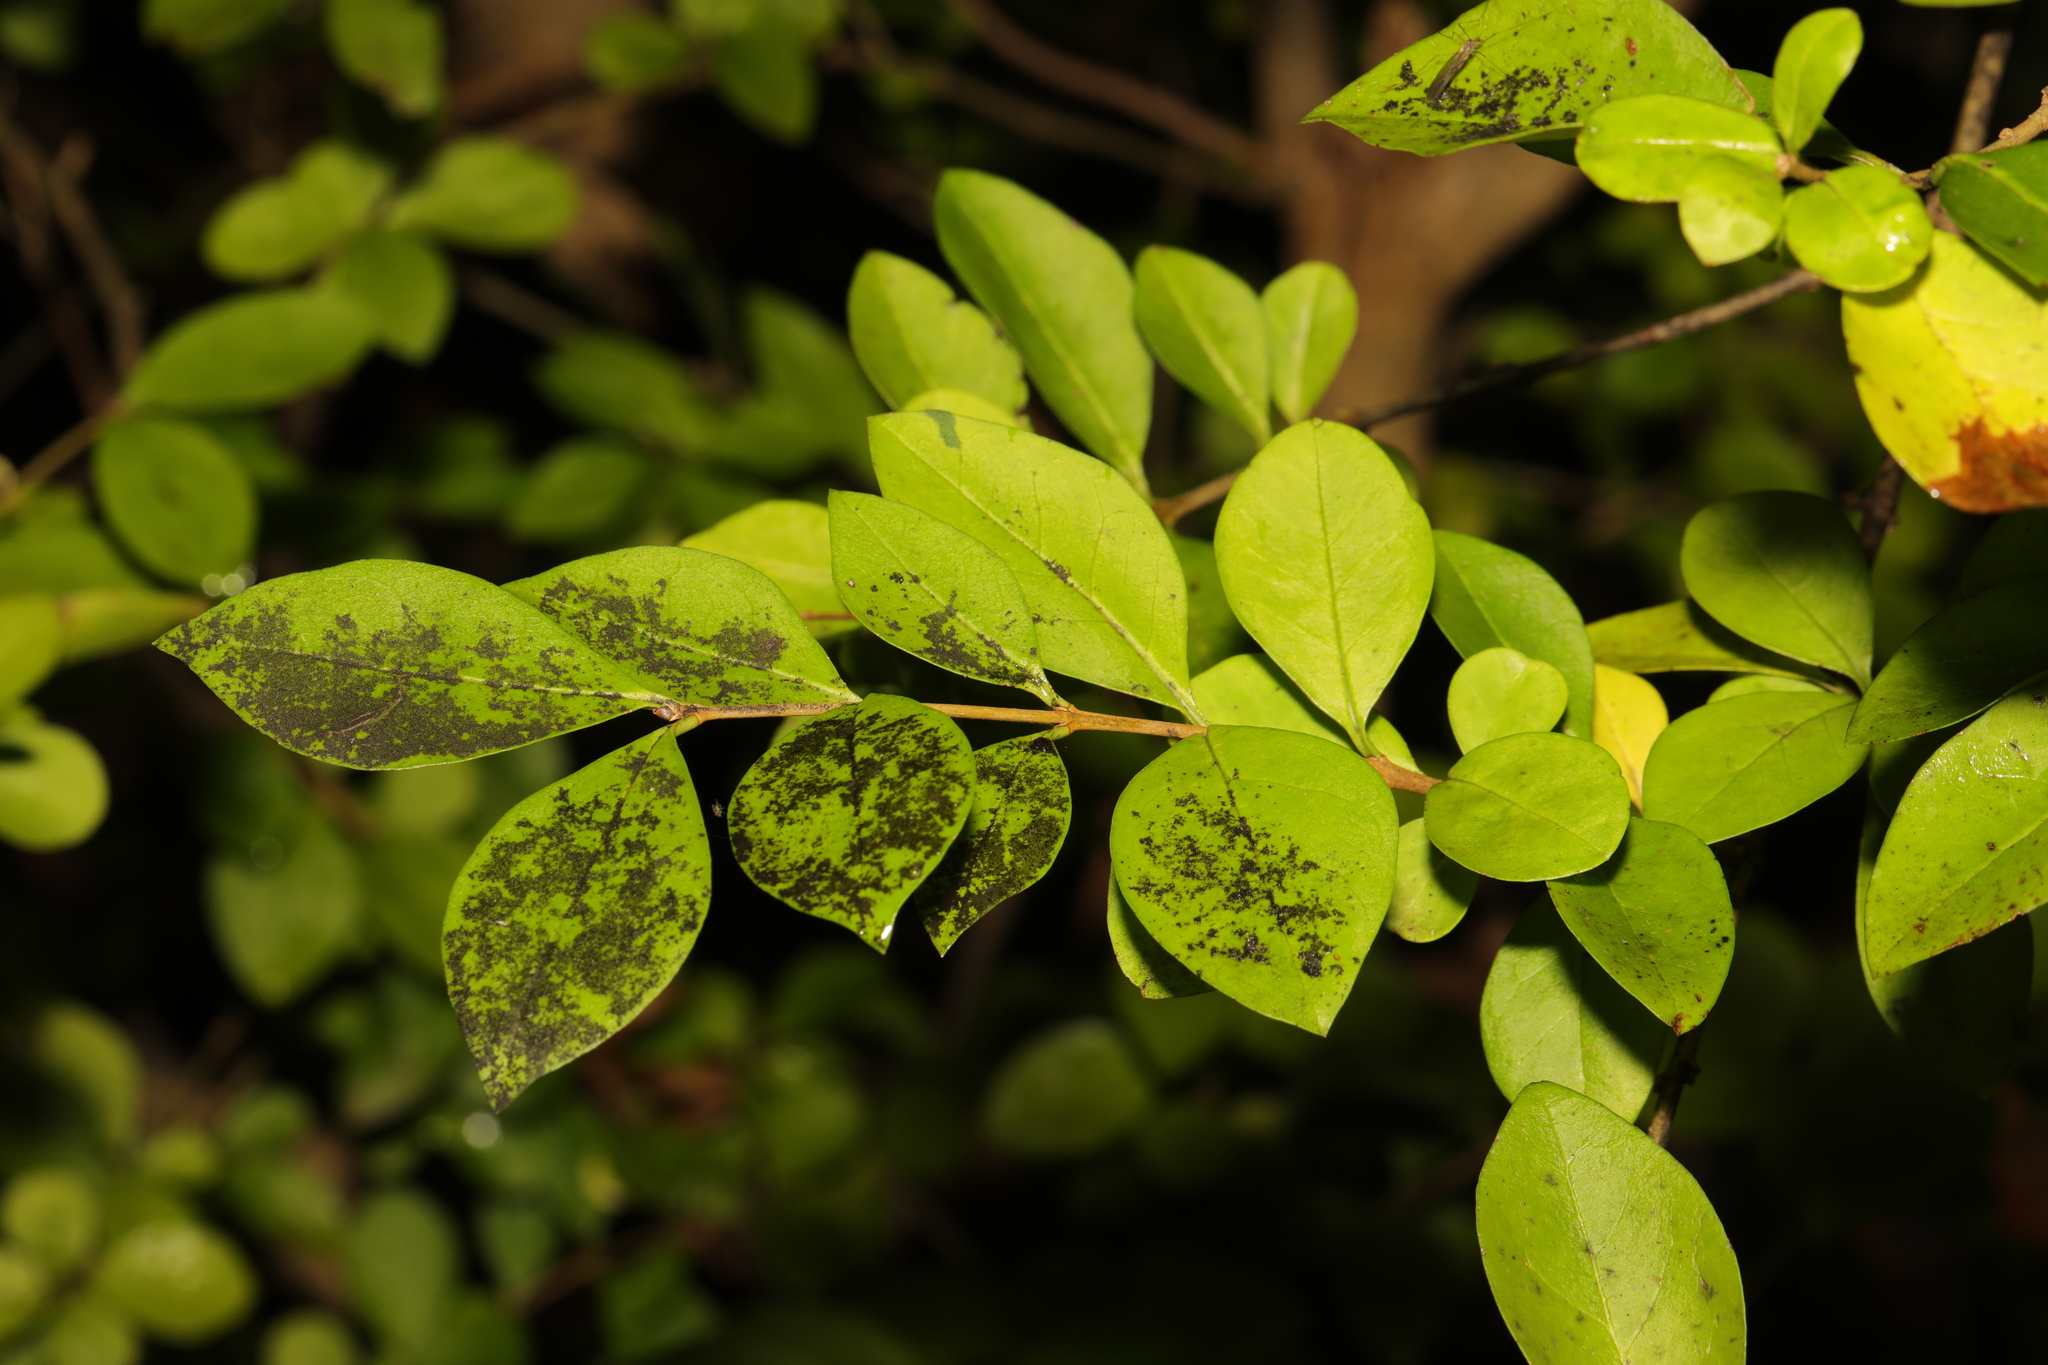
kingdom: Plantae
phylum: Tracheophyta
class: Magnoliopsida
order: Lamiales
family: Oleaceae
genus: Ligustrum
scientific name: Ligustrum ovalifolium
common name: California privet
